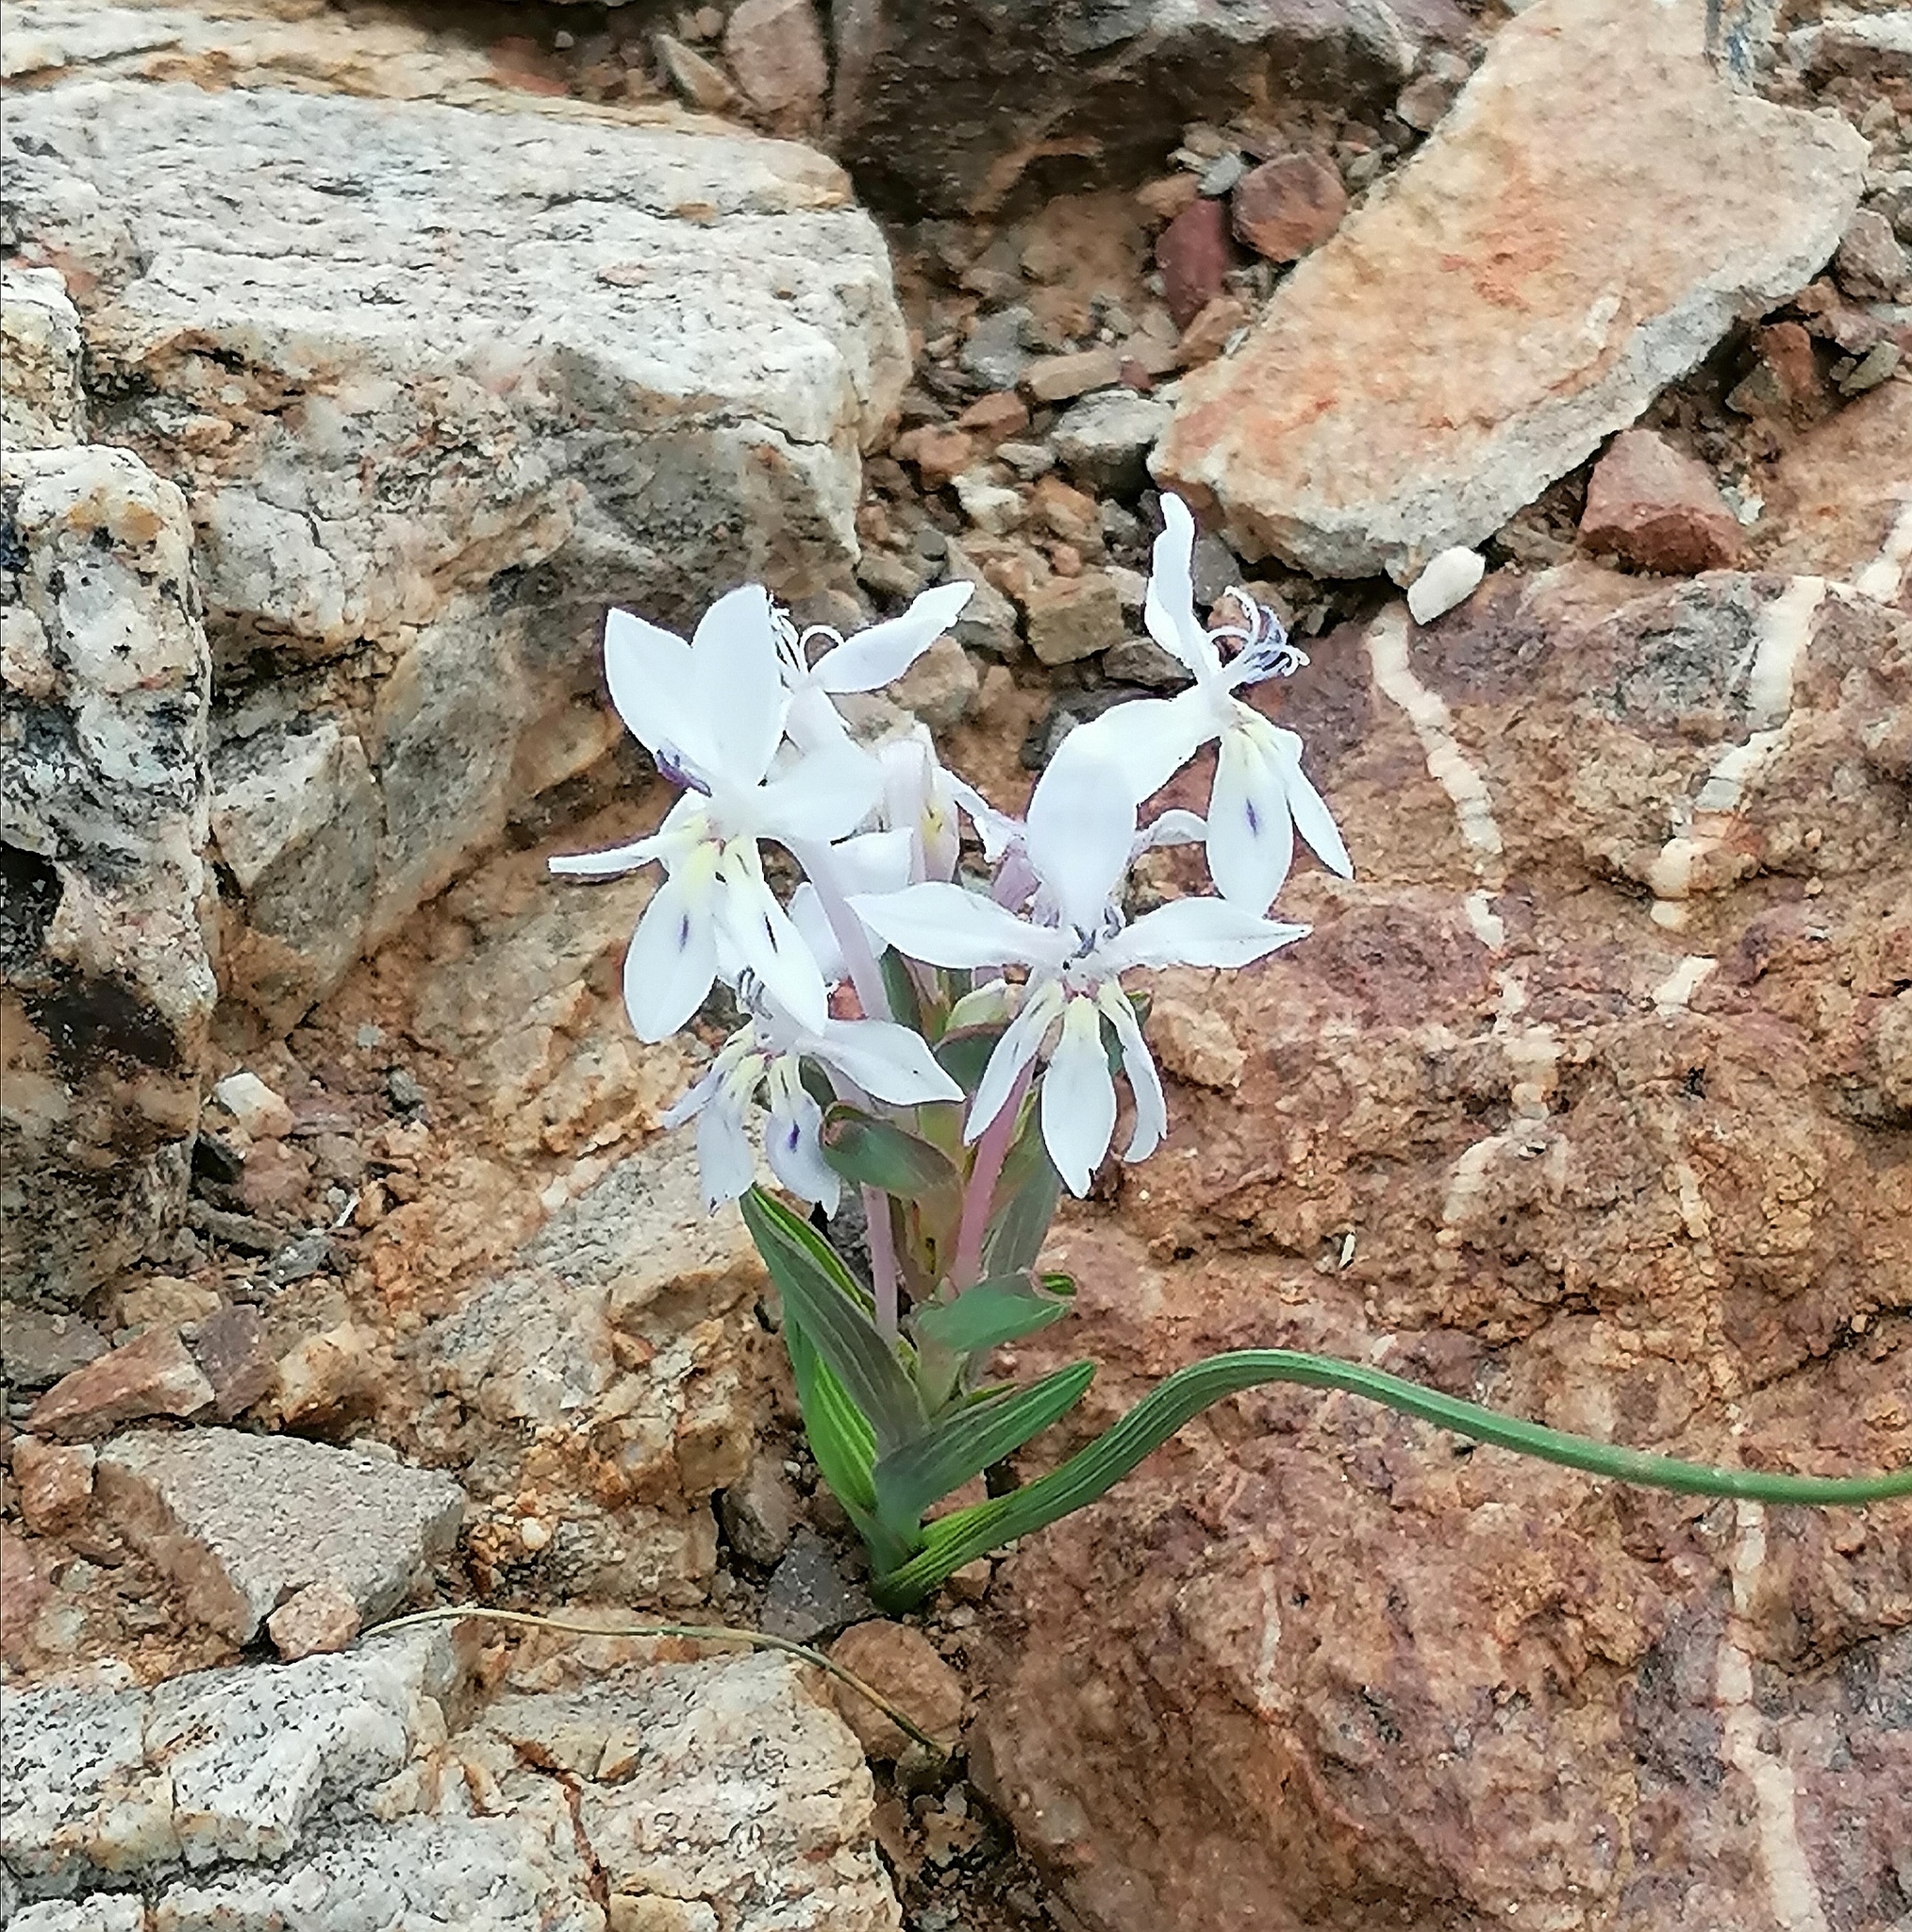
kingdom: Plantae
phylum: Tracheophyta
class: Liliopsida
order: Asparagales
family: Iridaceae
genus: Lapeirousia
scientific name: Lapeirousia pyramidalis
